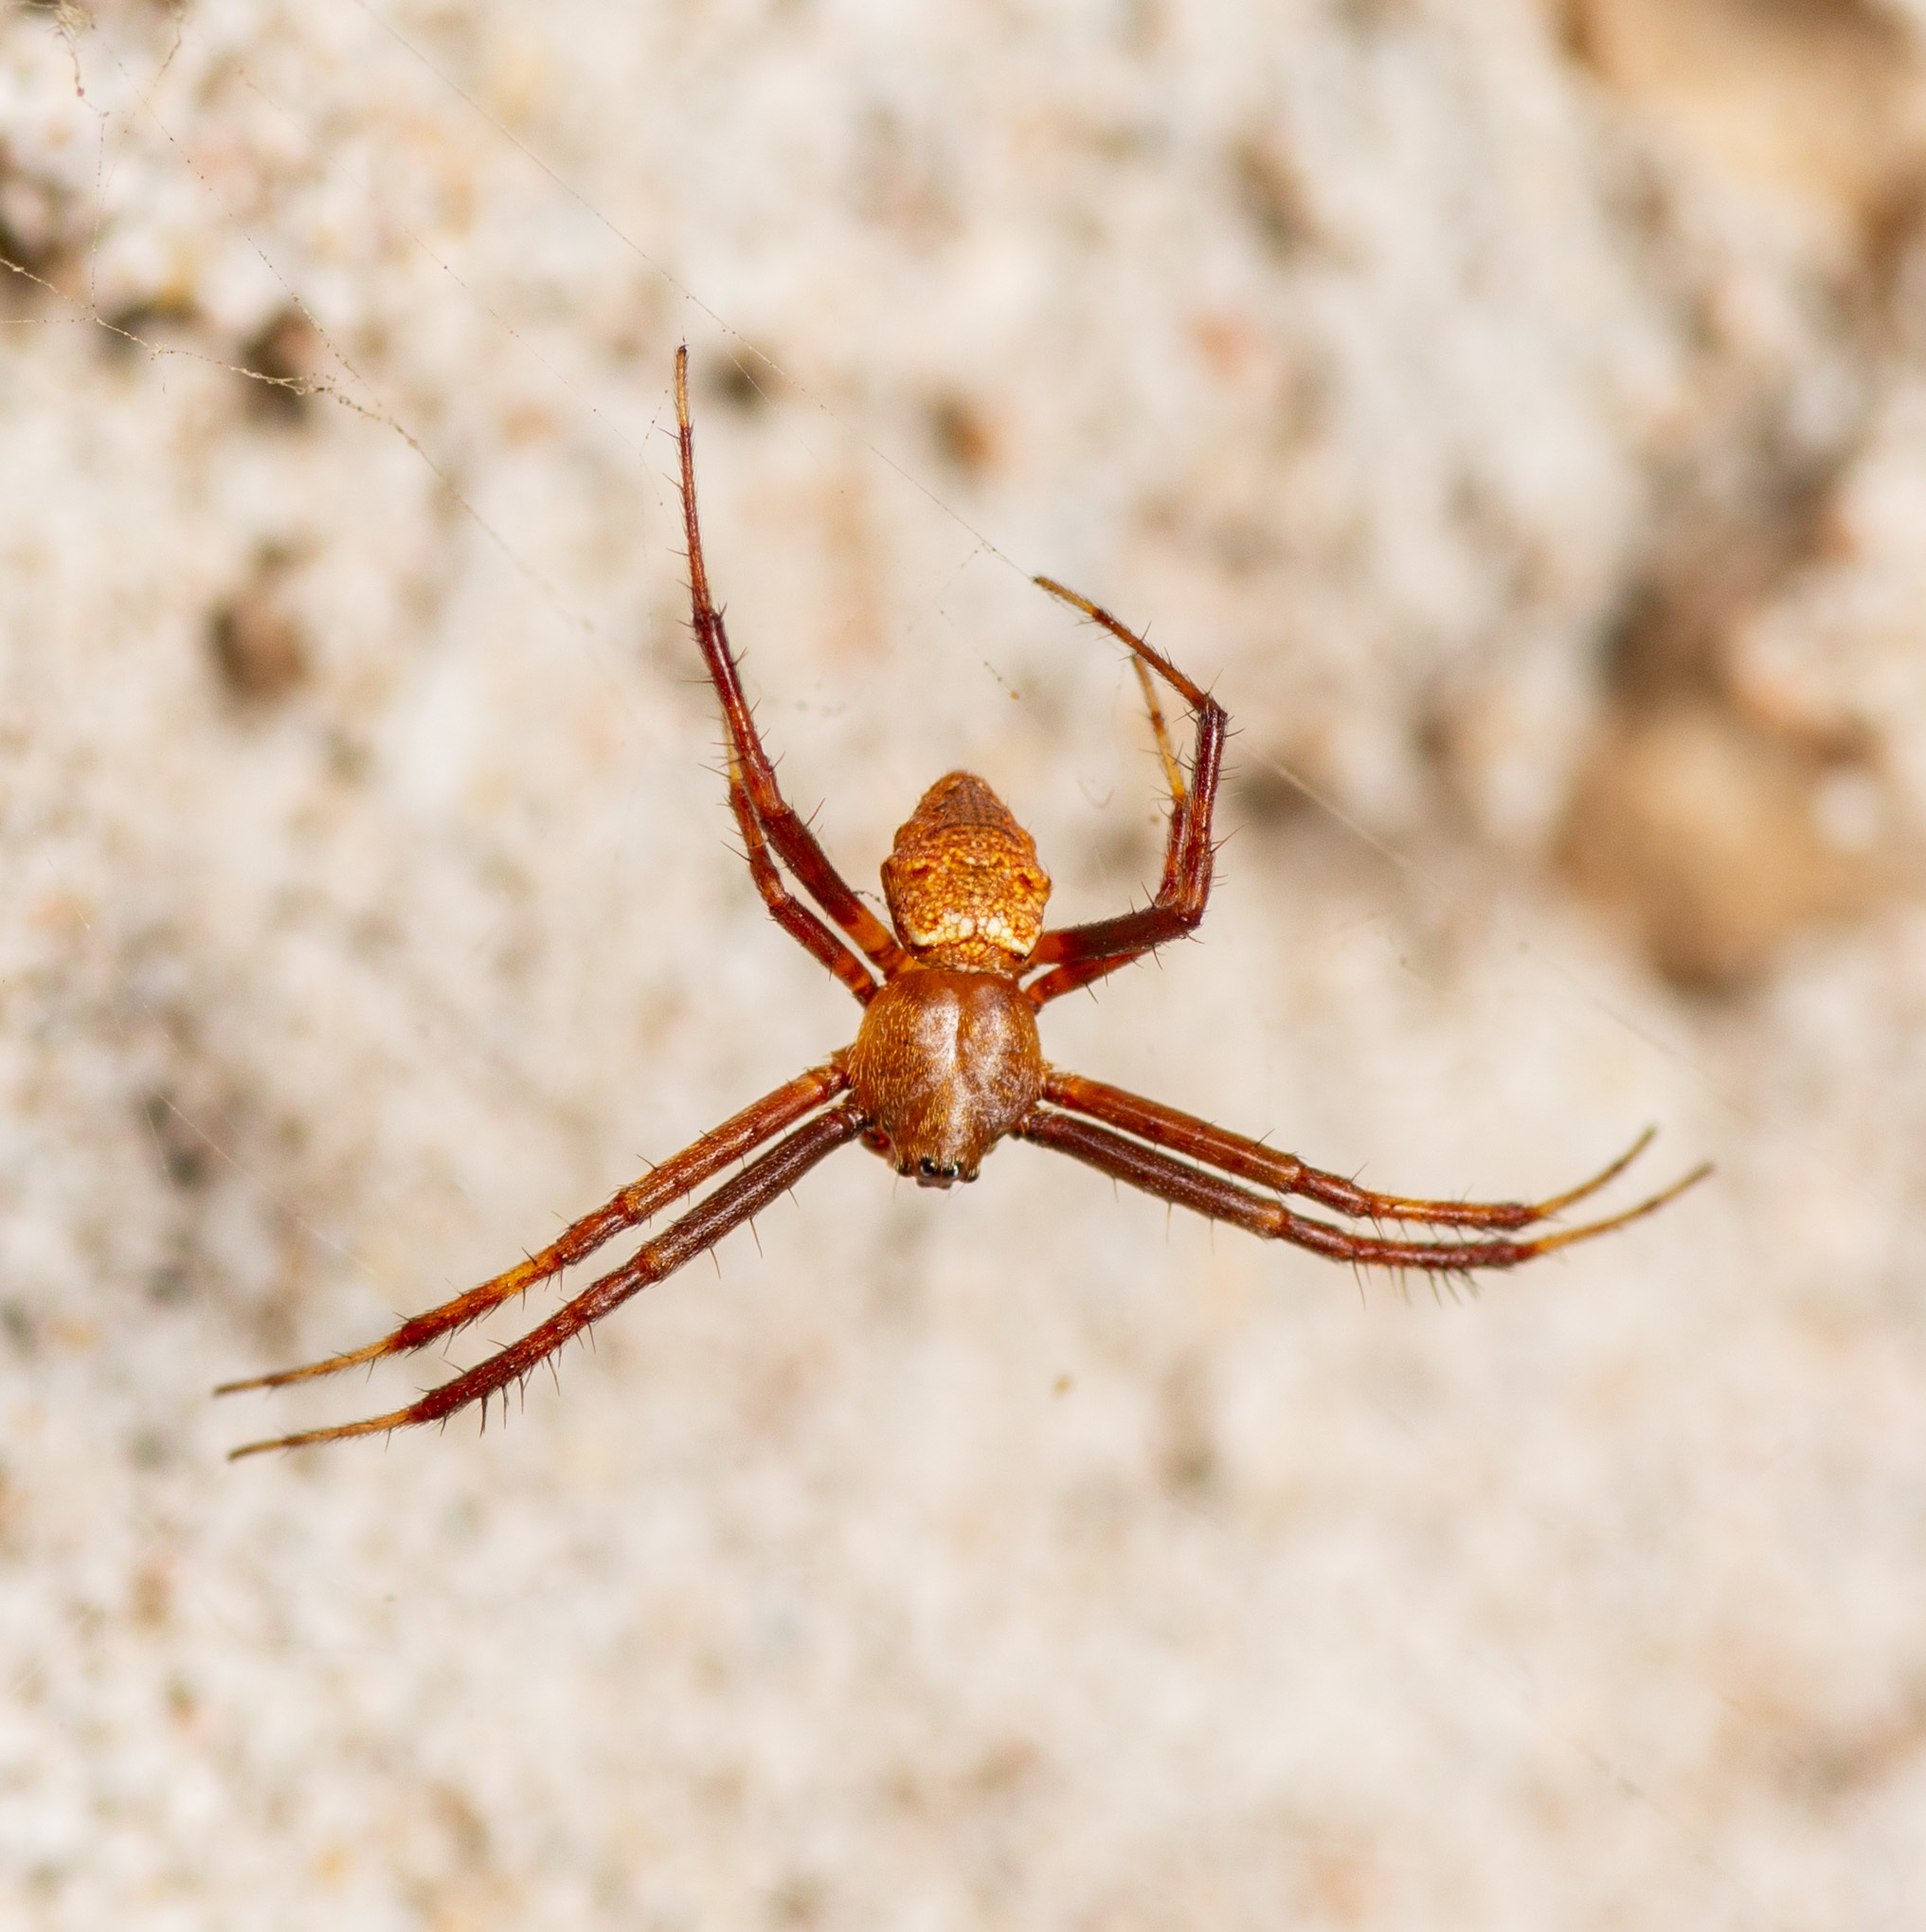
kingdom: Animalia
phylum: Arthropoda
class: Arachnida
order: Araneae
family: Araneidae
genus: Gea
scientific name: Gea heptagon
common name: Orb weavers
